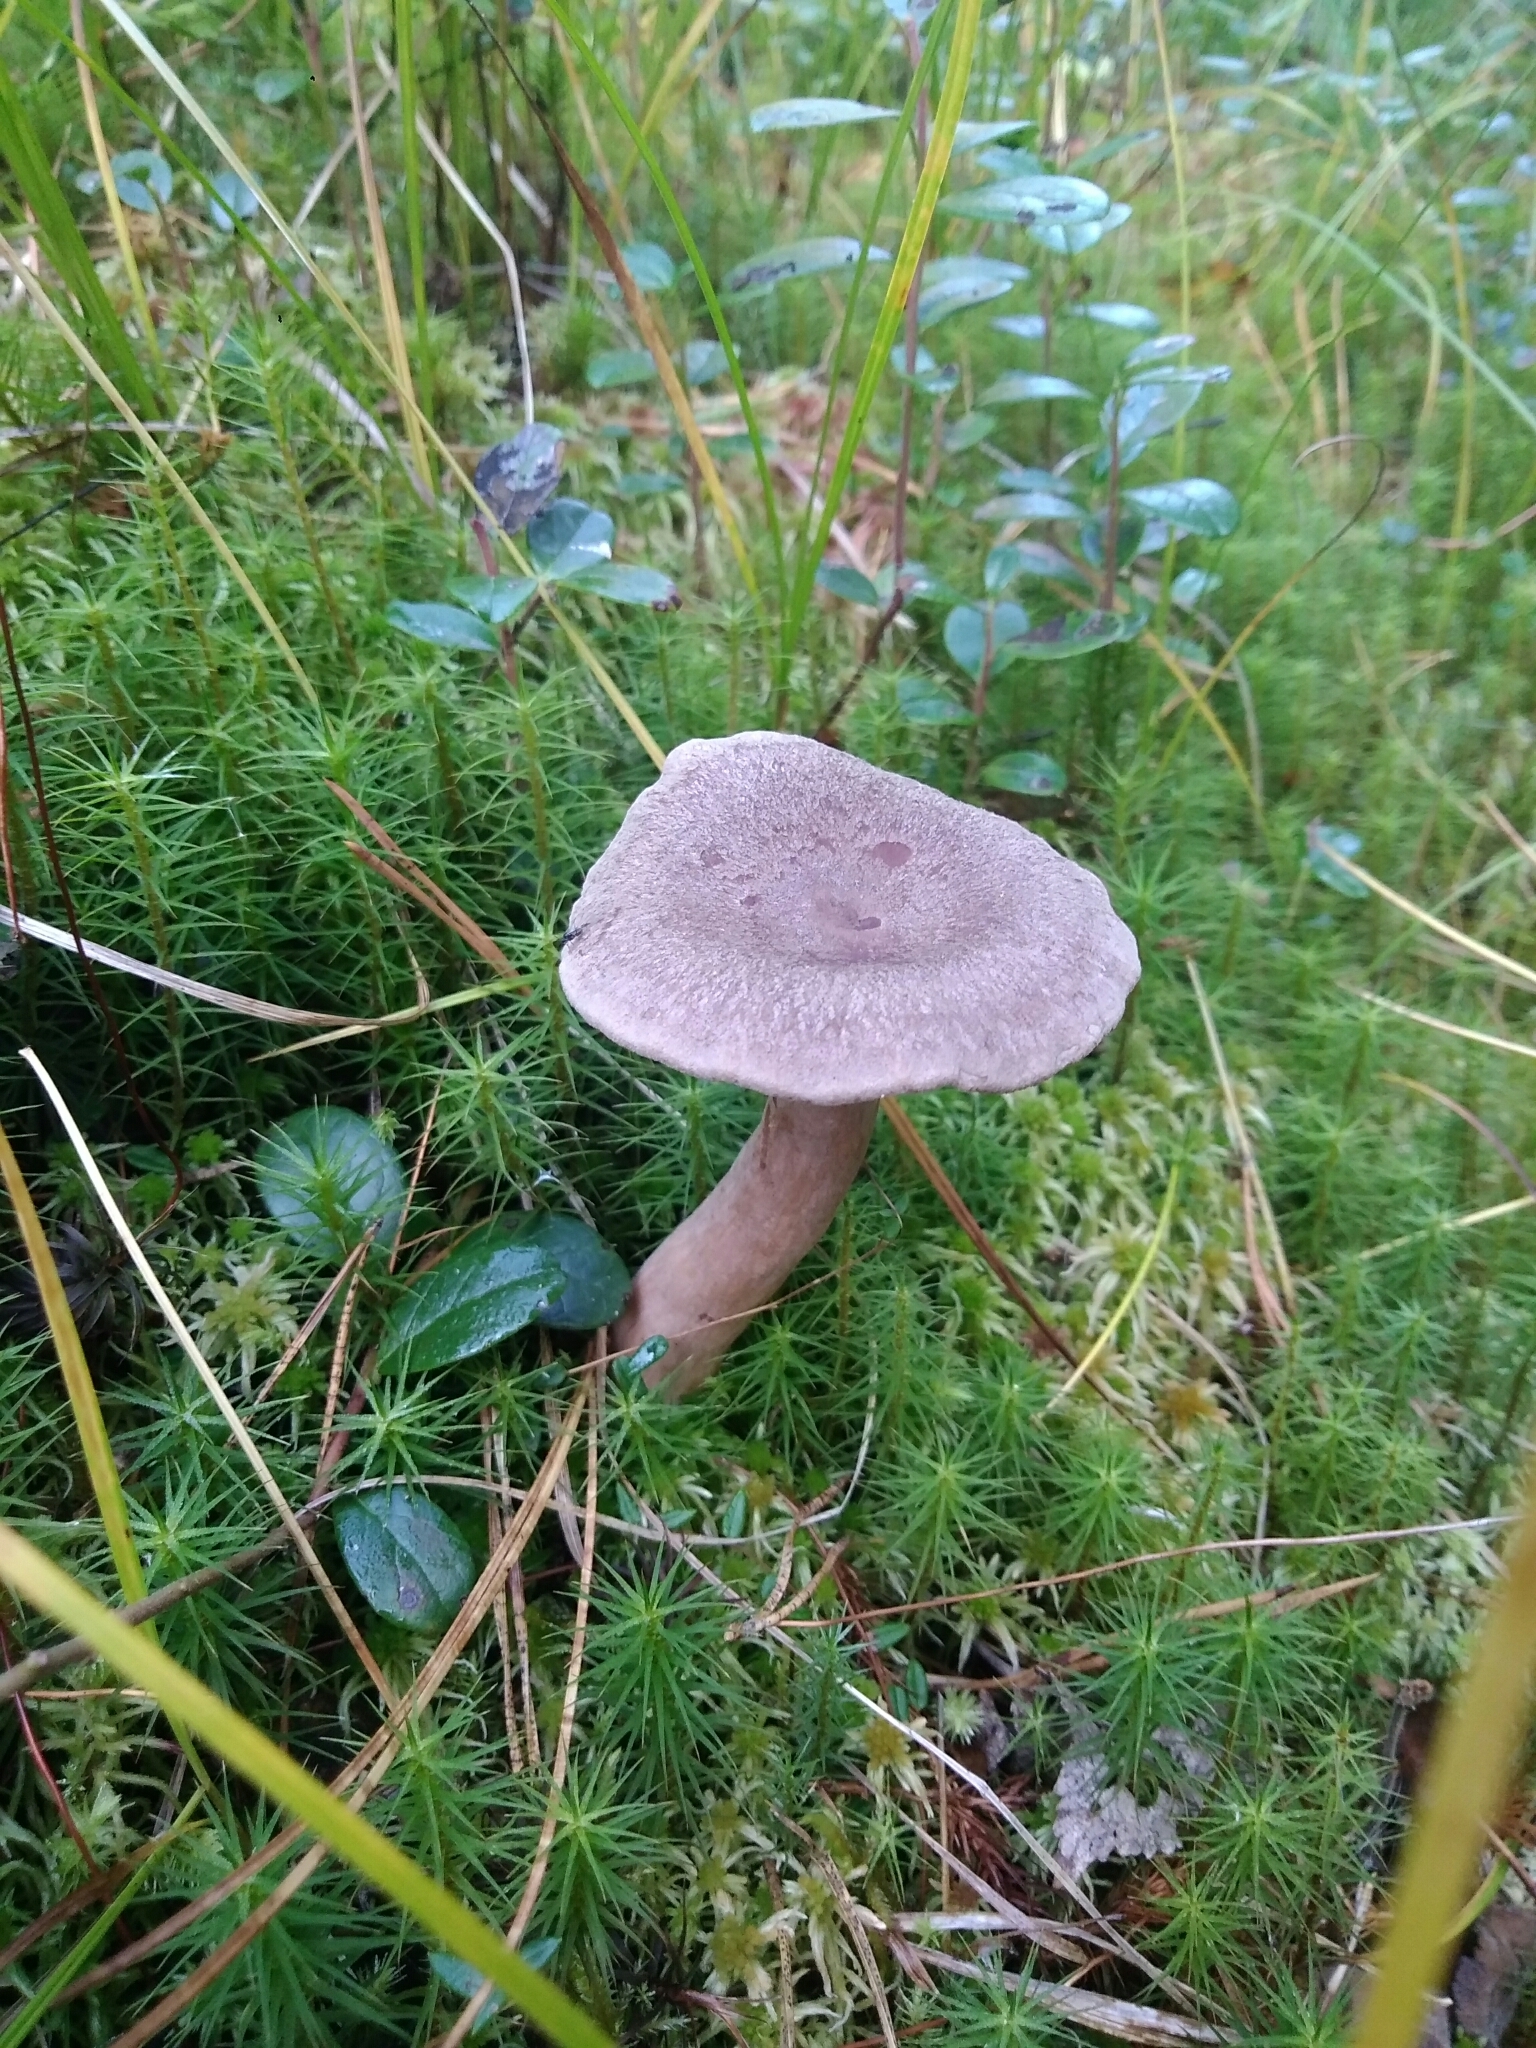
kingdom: Fungi
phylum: Basidiomycota
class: Agaricomycetes
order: Russulales
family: Russulaceae
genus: Lactarius
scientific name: Lactarius trivialis
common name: Tacked milkcap
